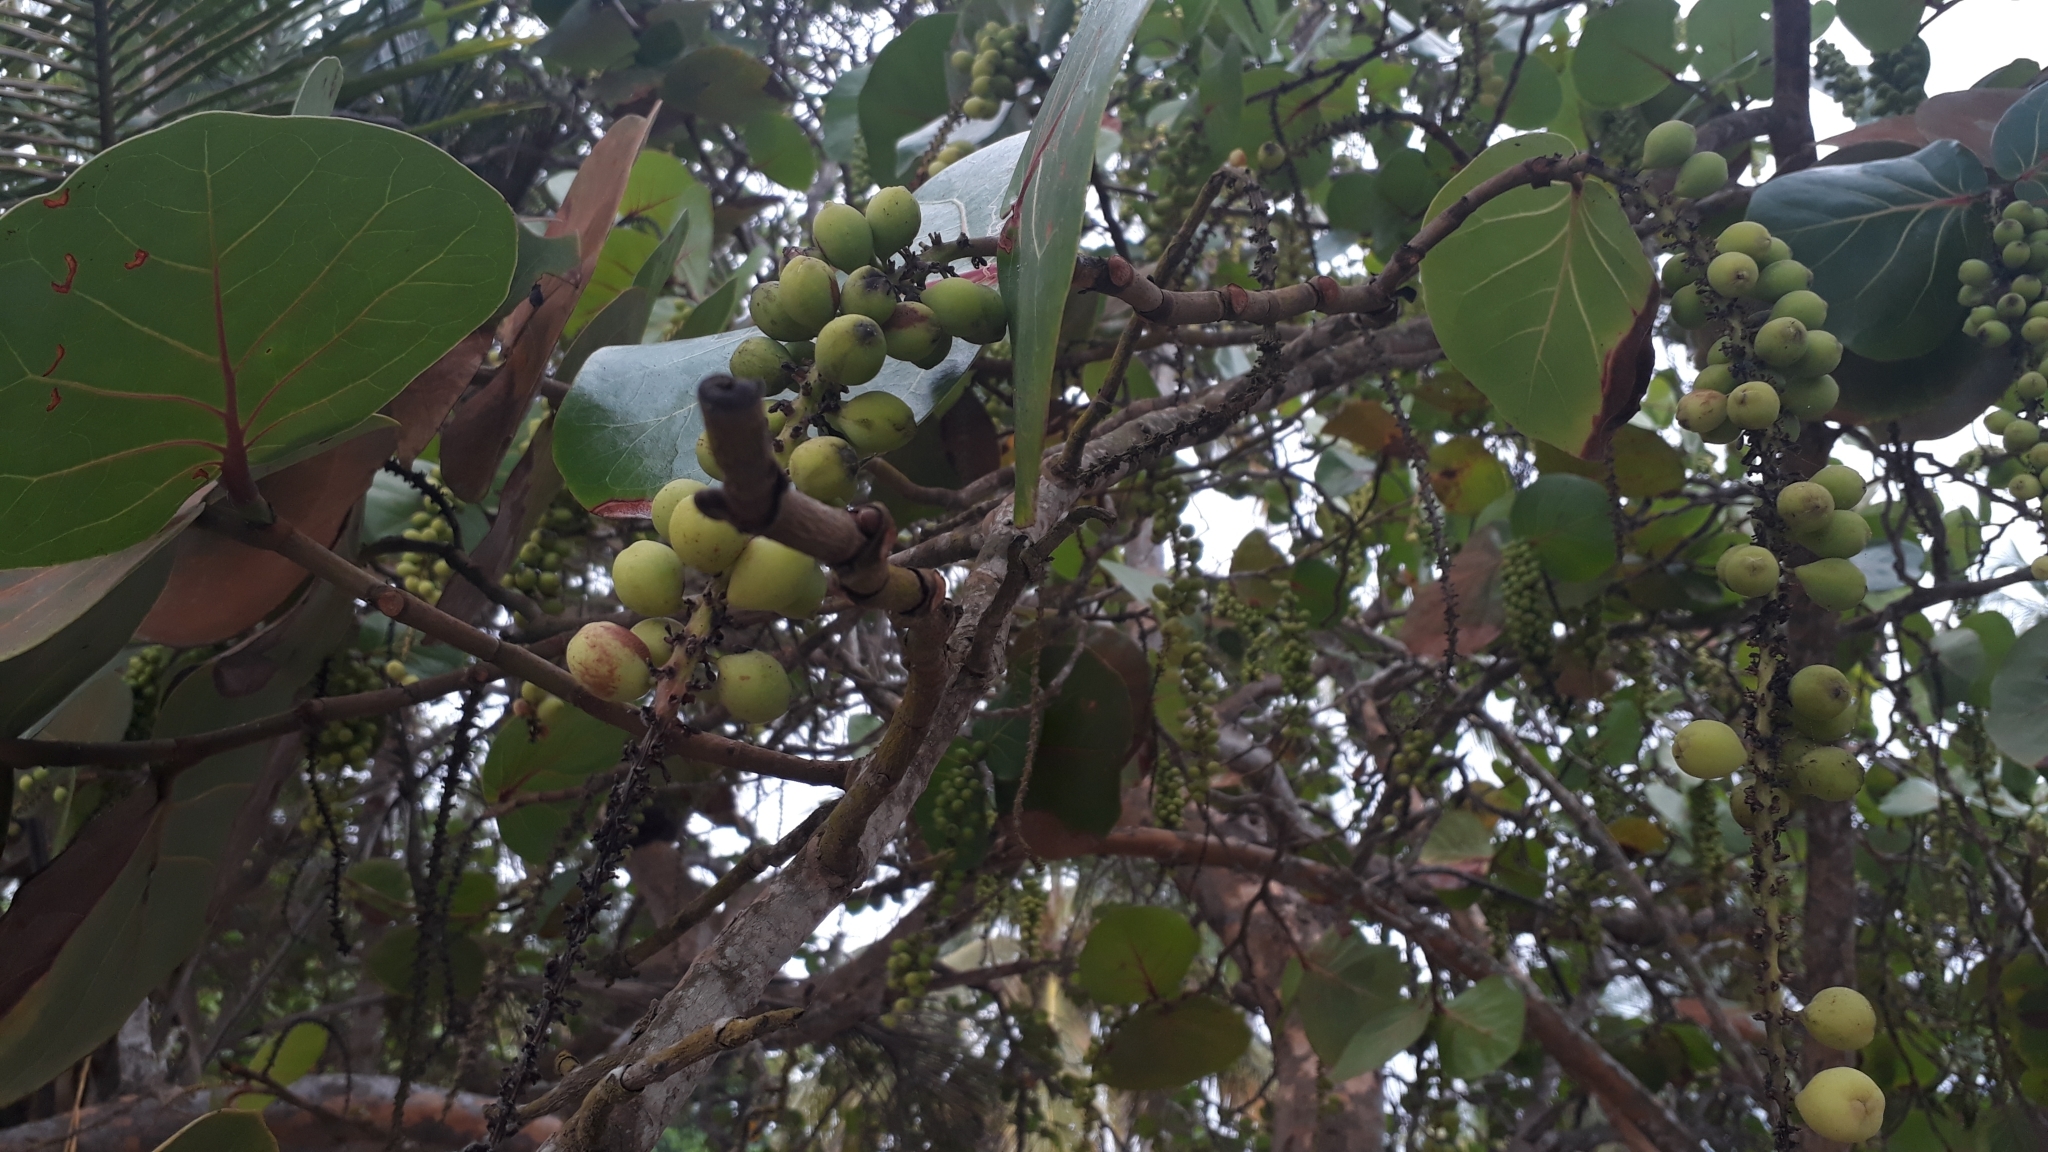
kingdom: Plantae
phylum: Tracheophyta
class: Magnoliopsida
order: Caryophyllales
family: Polygonaceae
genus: Coccoloba
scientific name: Coccoloba uvifera
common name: Seagrape
